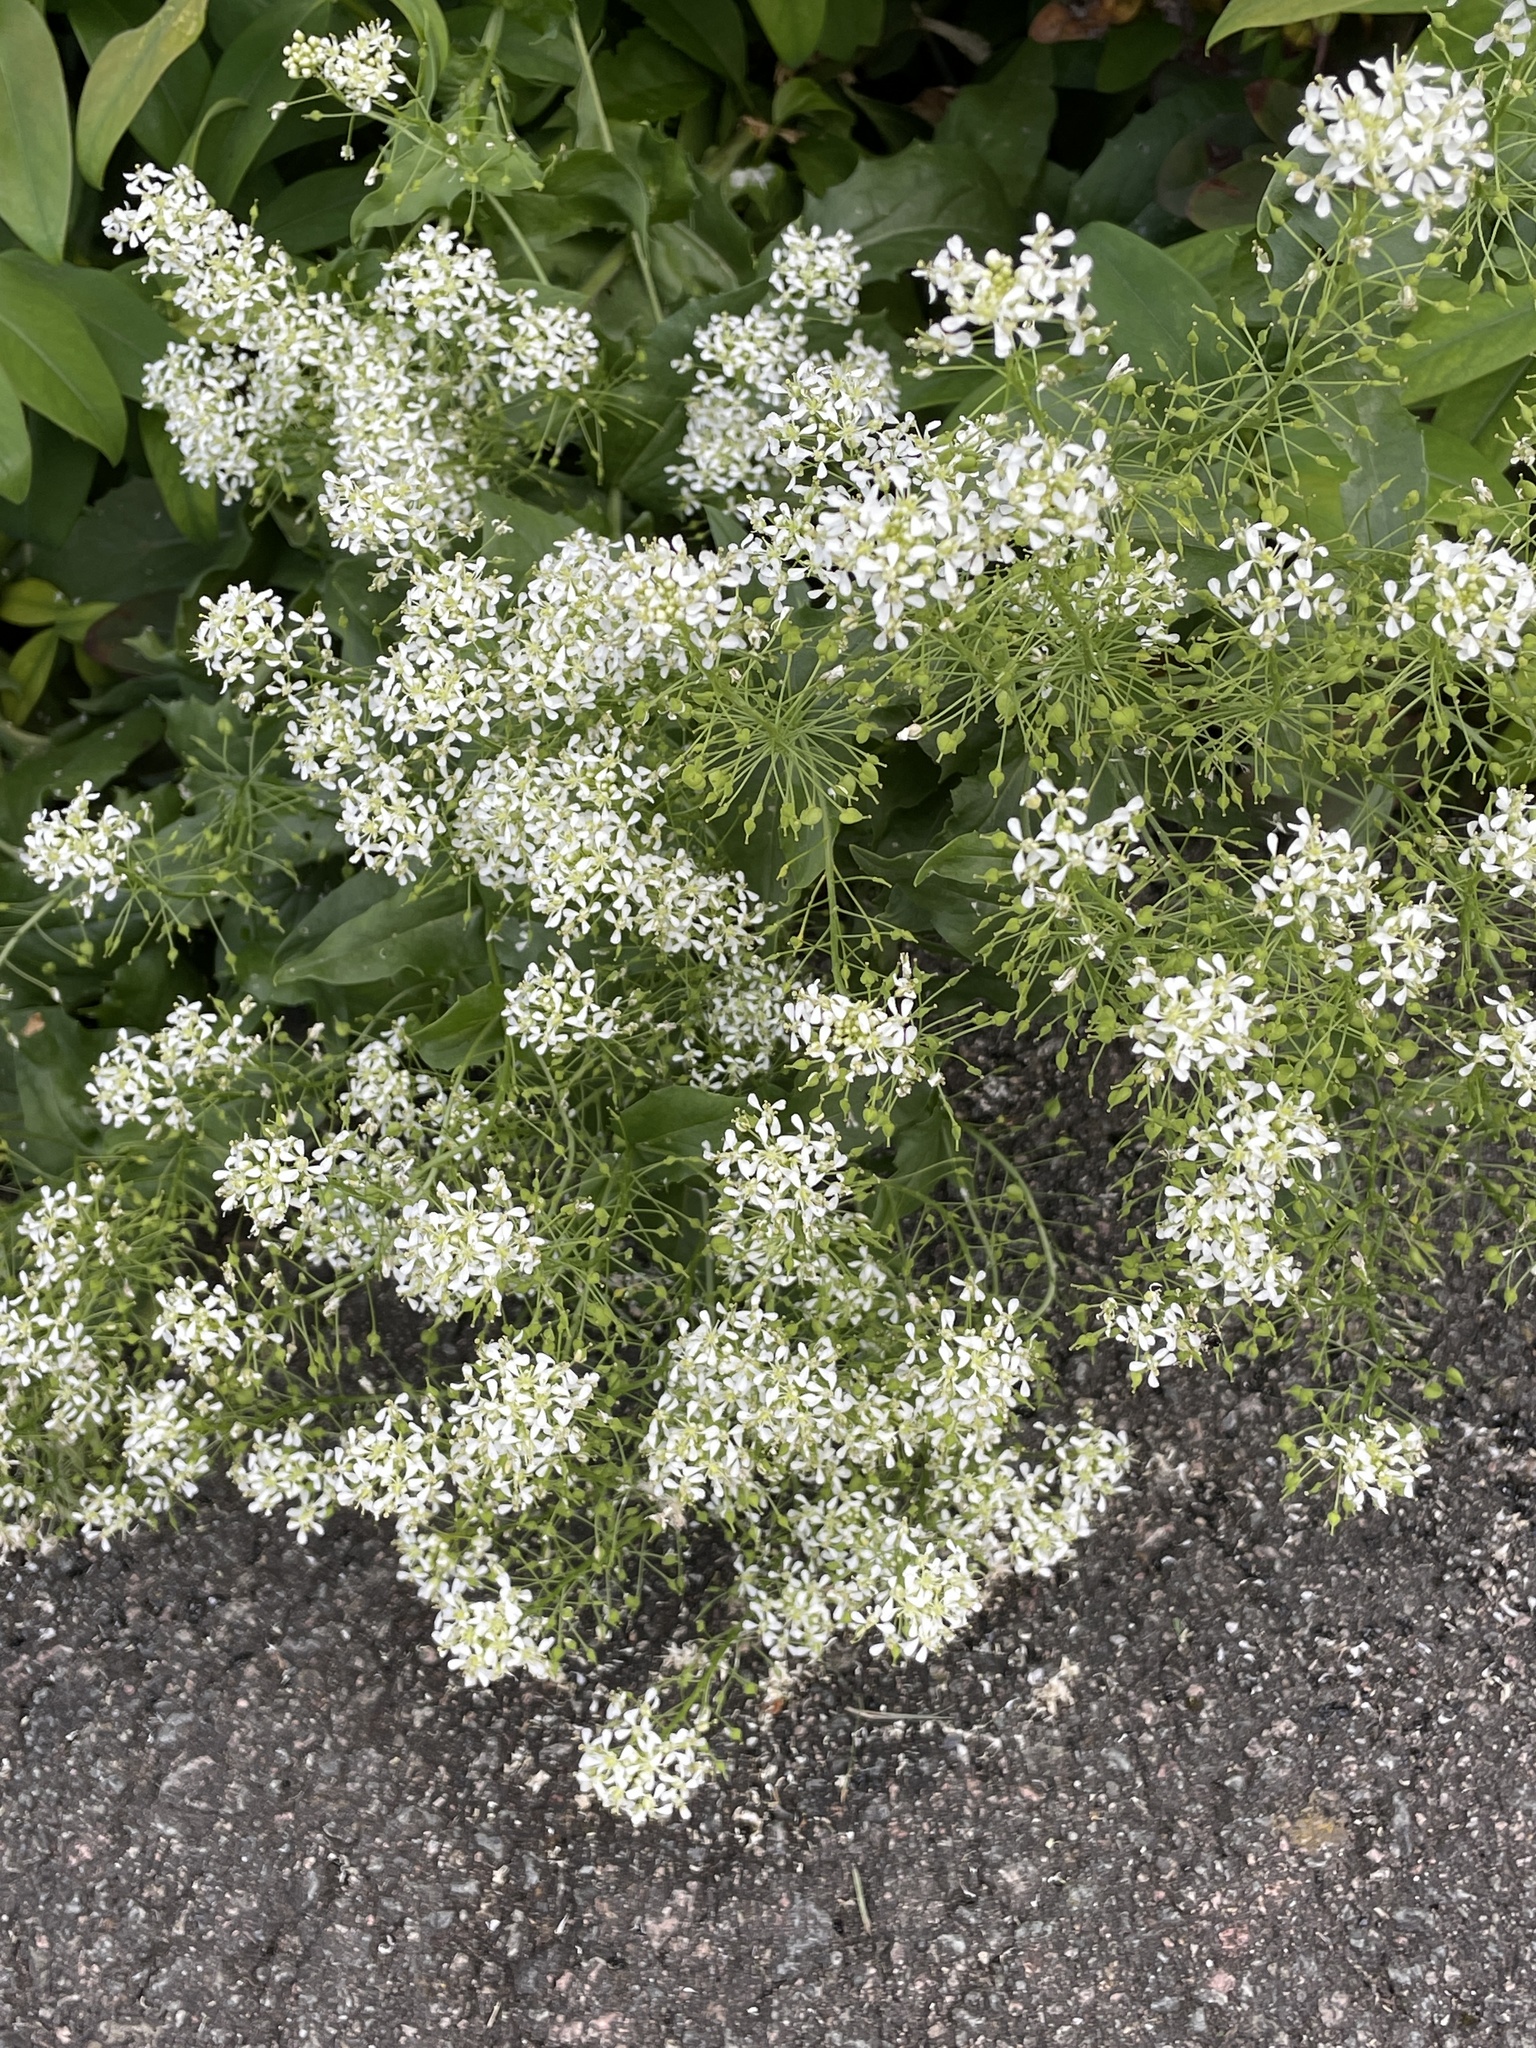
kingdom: Plantae
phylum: Tracheophyta
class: Magnoliopsida
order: Brassicales
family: Brassicaceae
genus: Lepidium
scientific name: Lepidium draba
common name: Hoary cress
